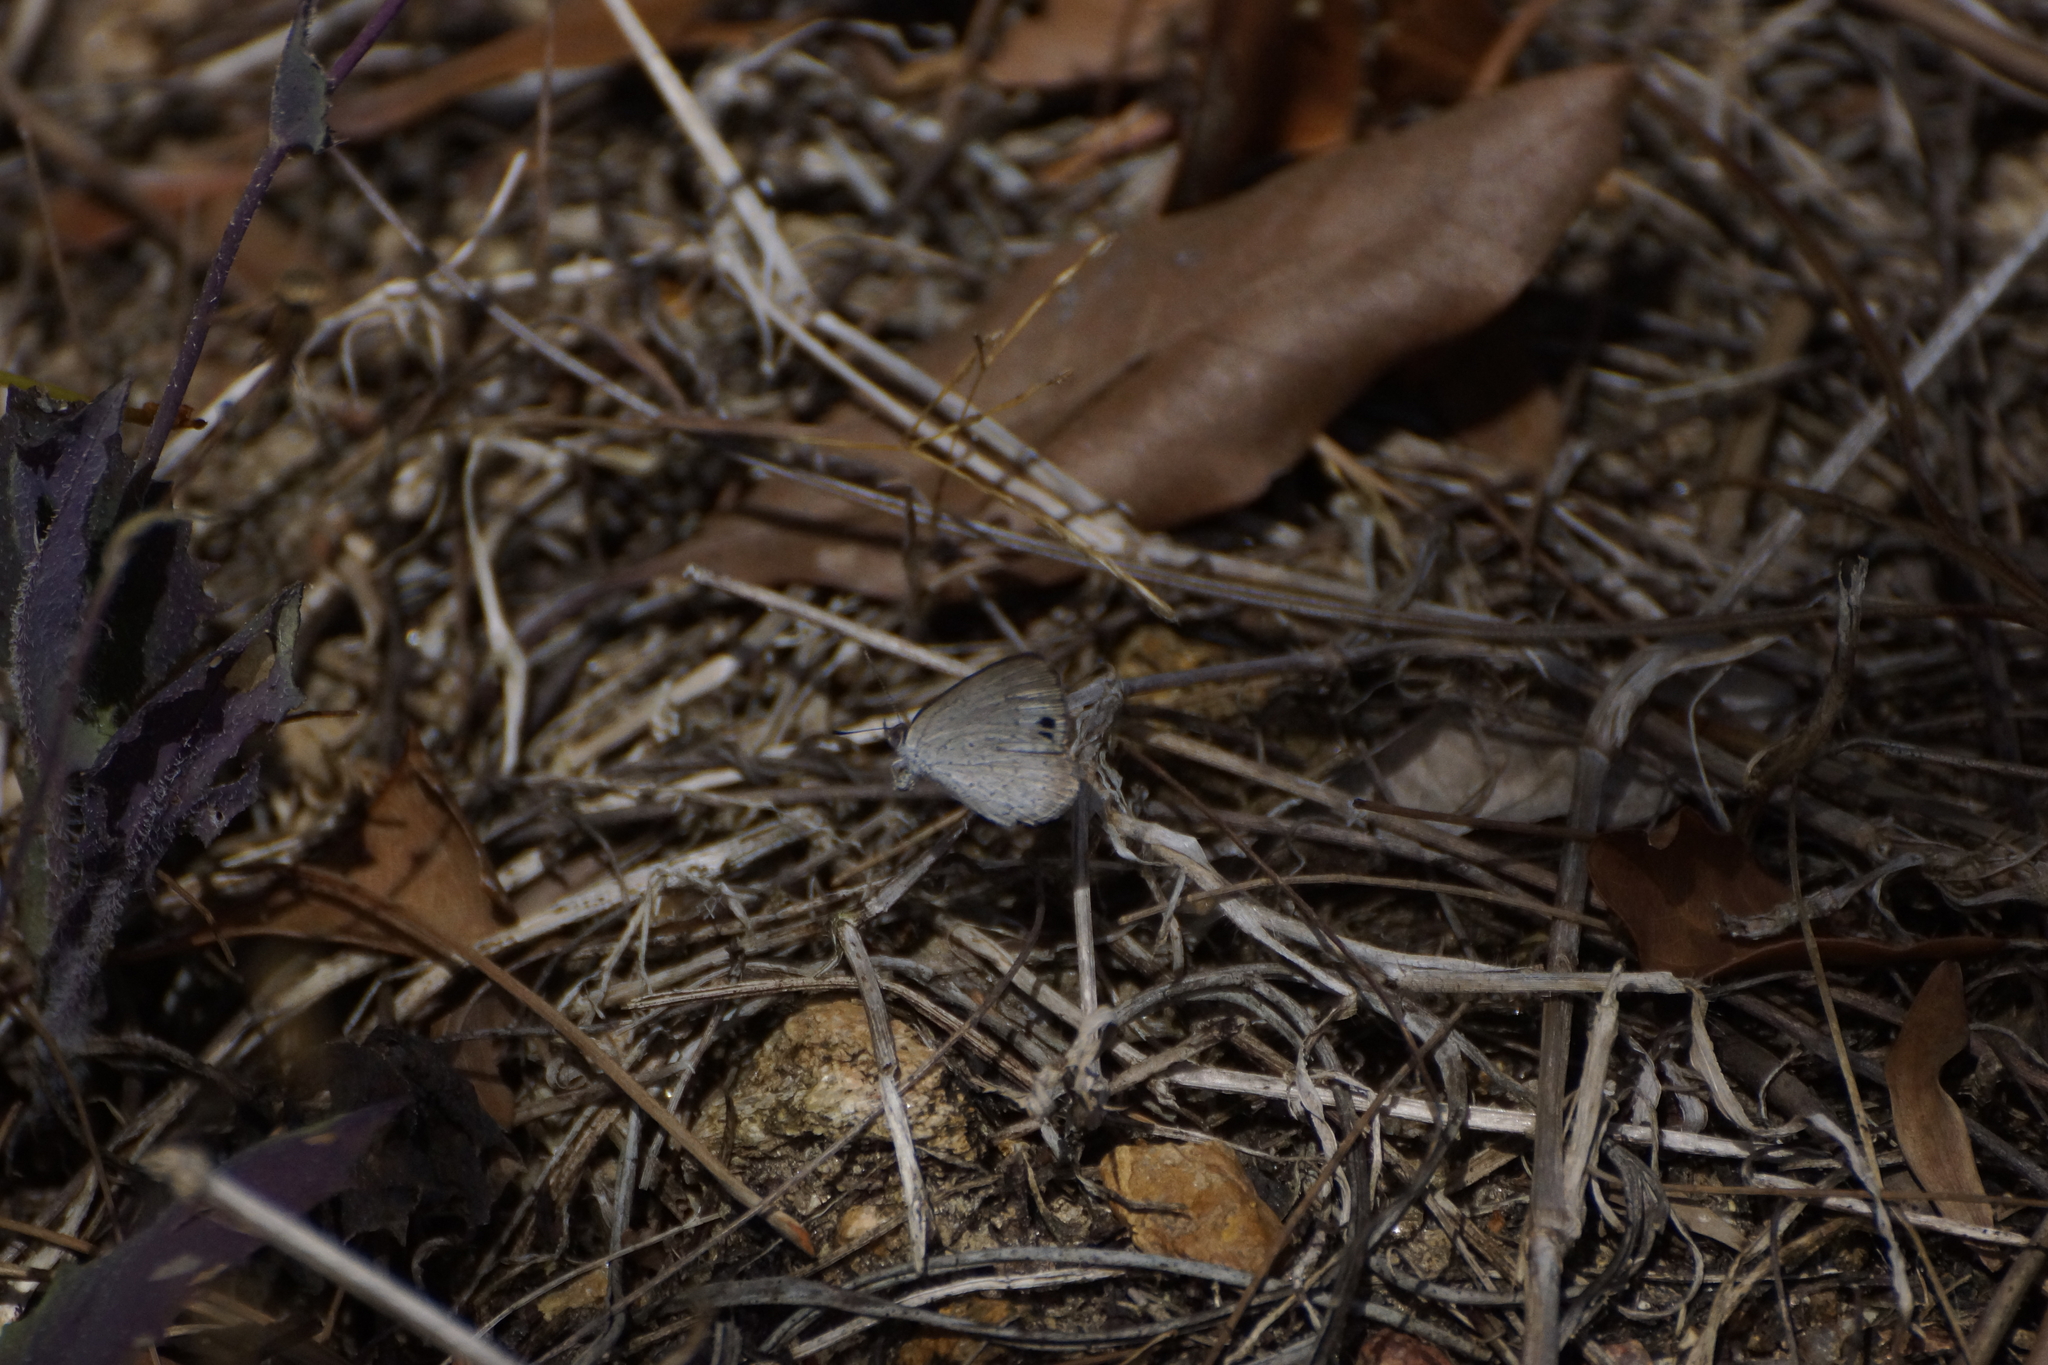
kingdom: Animalia
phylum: Arthropoda
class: Insecta
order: Lepidoptera
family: Lycaenidae
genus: Candalides
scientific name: Candalides
